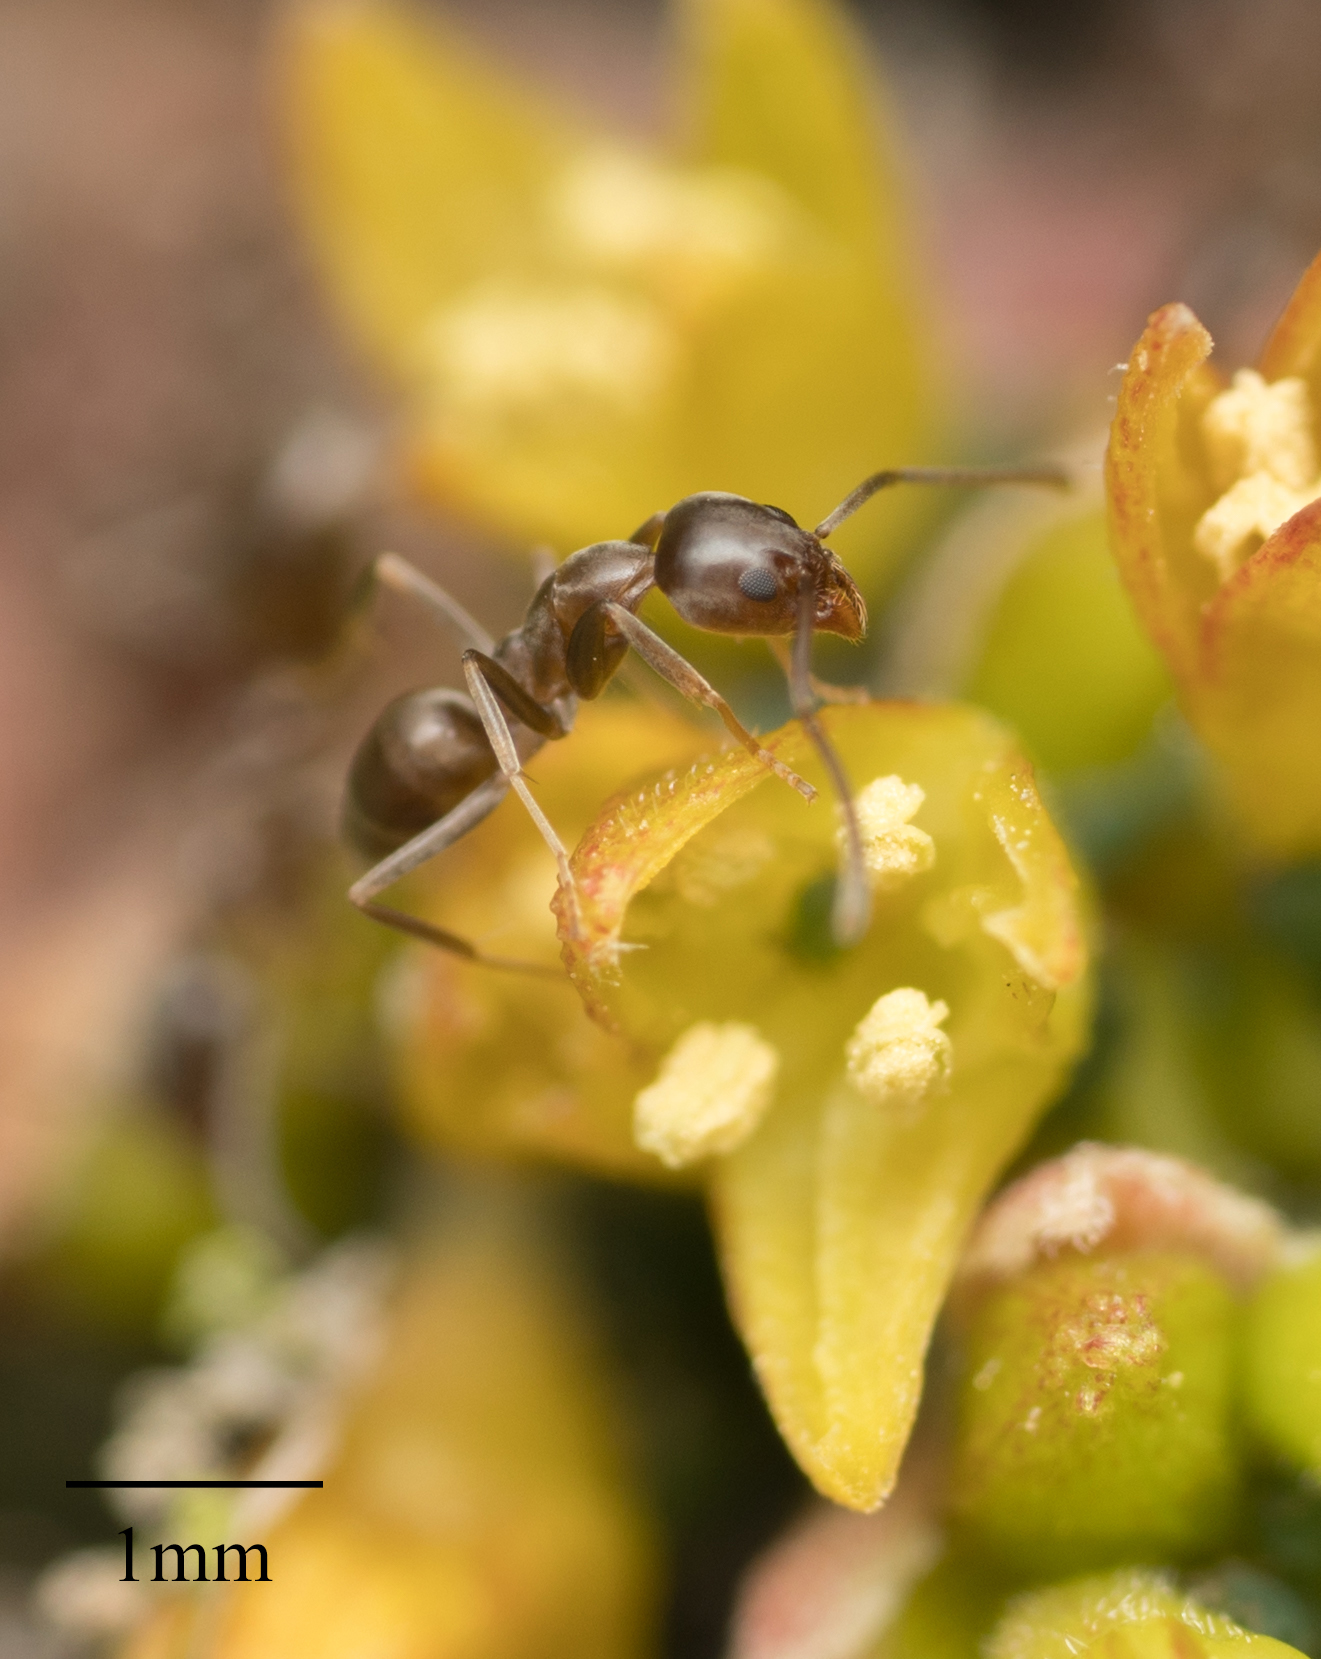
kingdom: Animalia
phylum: Arthropoda
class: Insecta
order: Hymenoptera
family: Formicidae
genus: Linepithema
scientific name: Linepithema humile
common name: Argentine ant
